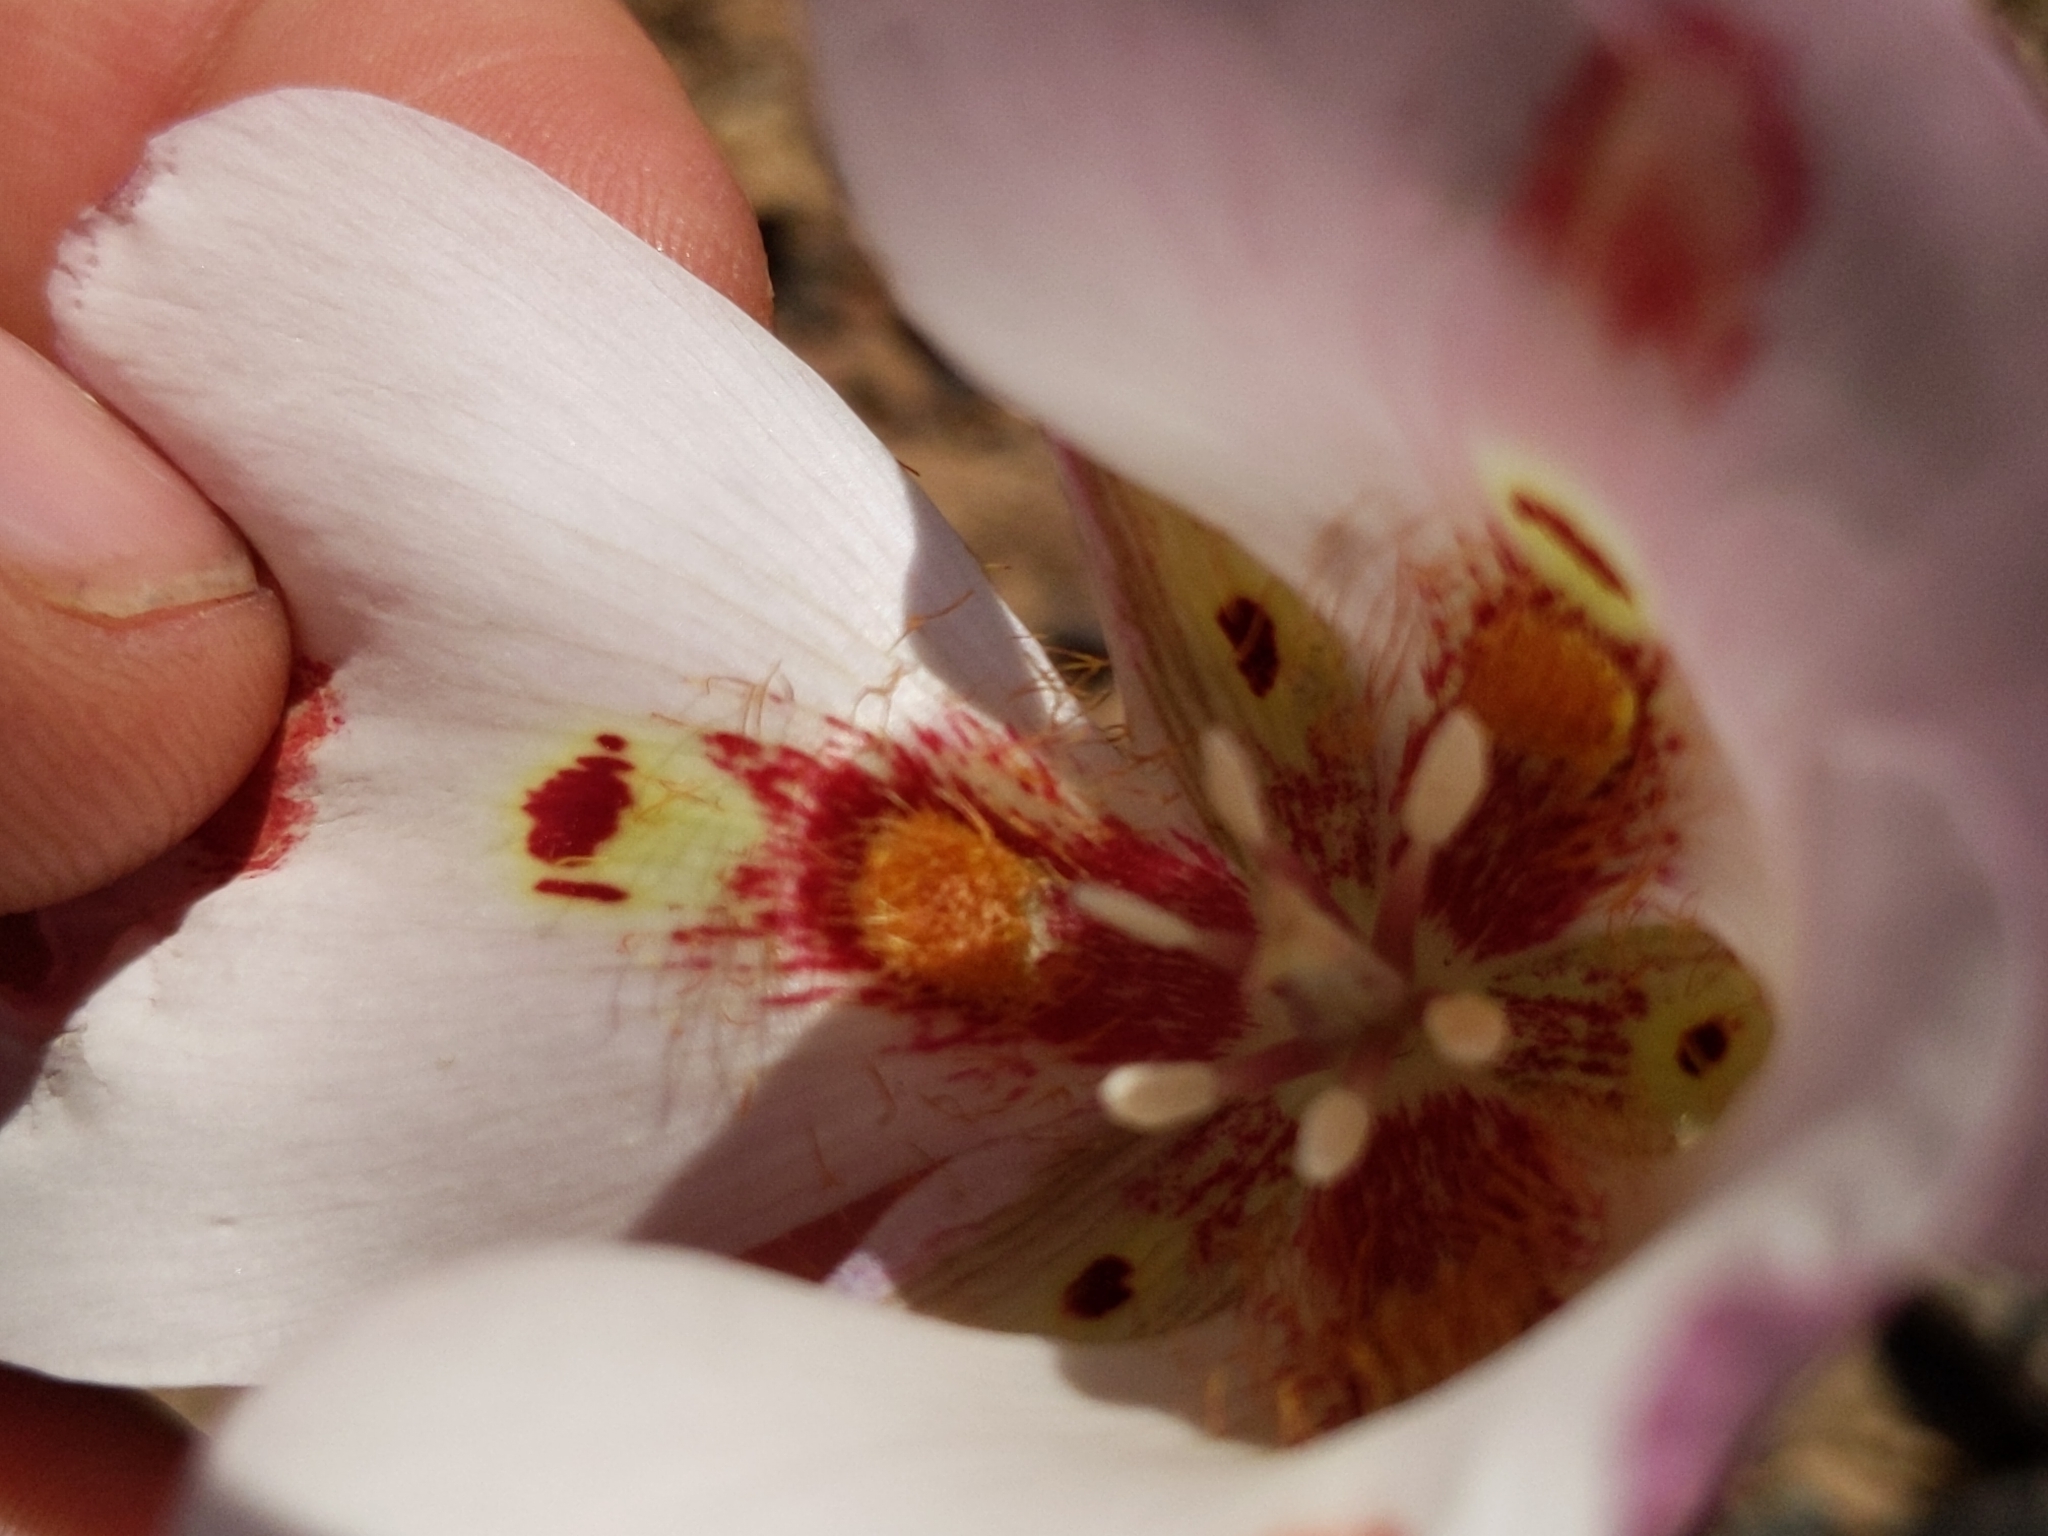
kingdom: Plantae
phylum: Tracheophyta
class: Liliopsida
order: Liliales
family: Liliaceae
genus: Calochortus
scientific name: Calochortus venustus
